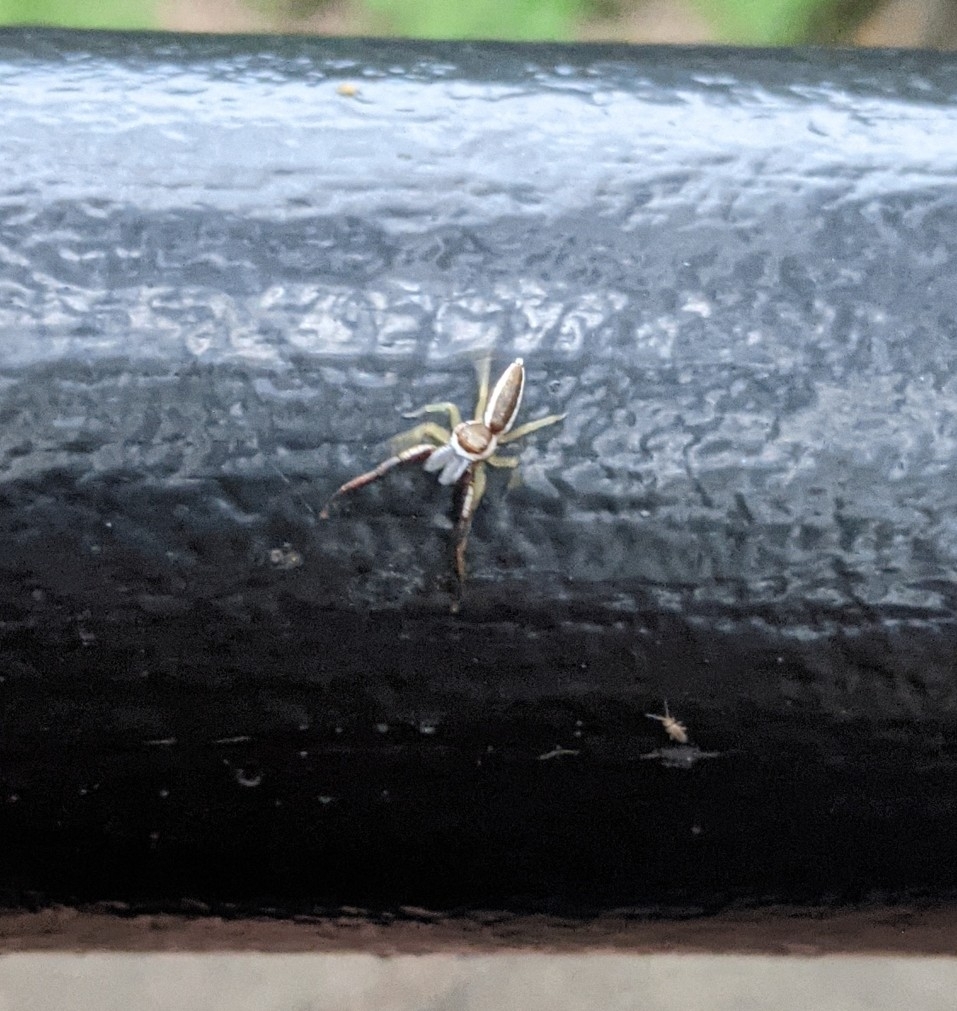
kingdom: Animalia
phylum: Arthropoda
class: Arachnida
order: Araneae
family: Salticidae
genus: Hentzia
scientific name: Hentzia palmarum
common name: Common hentz jumping spider
